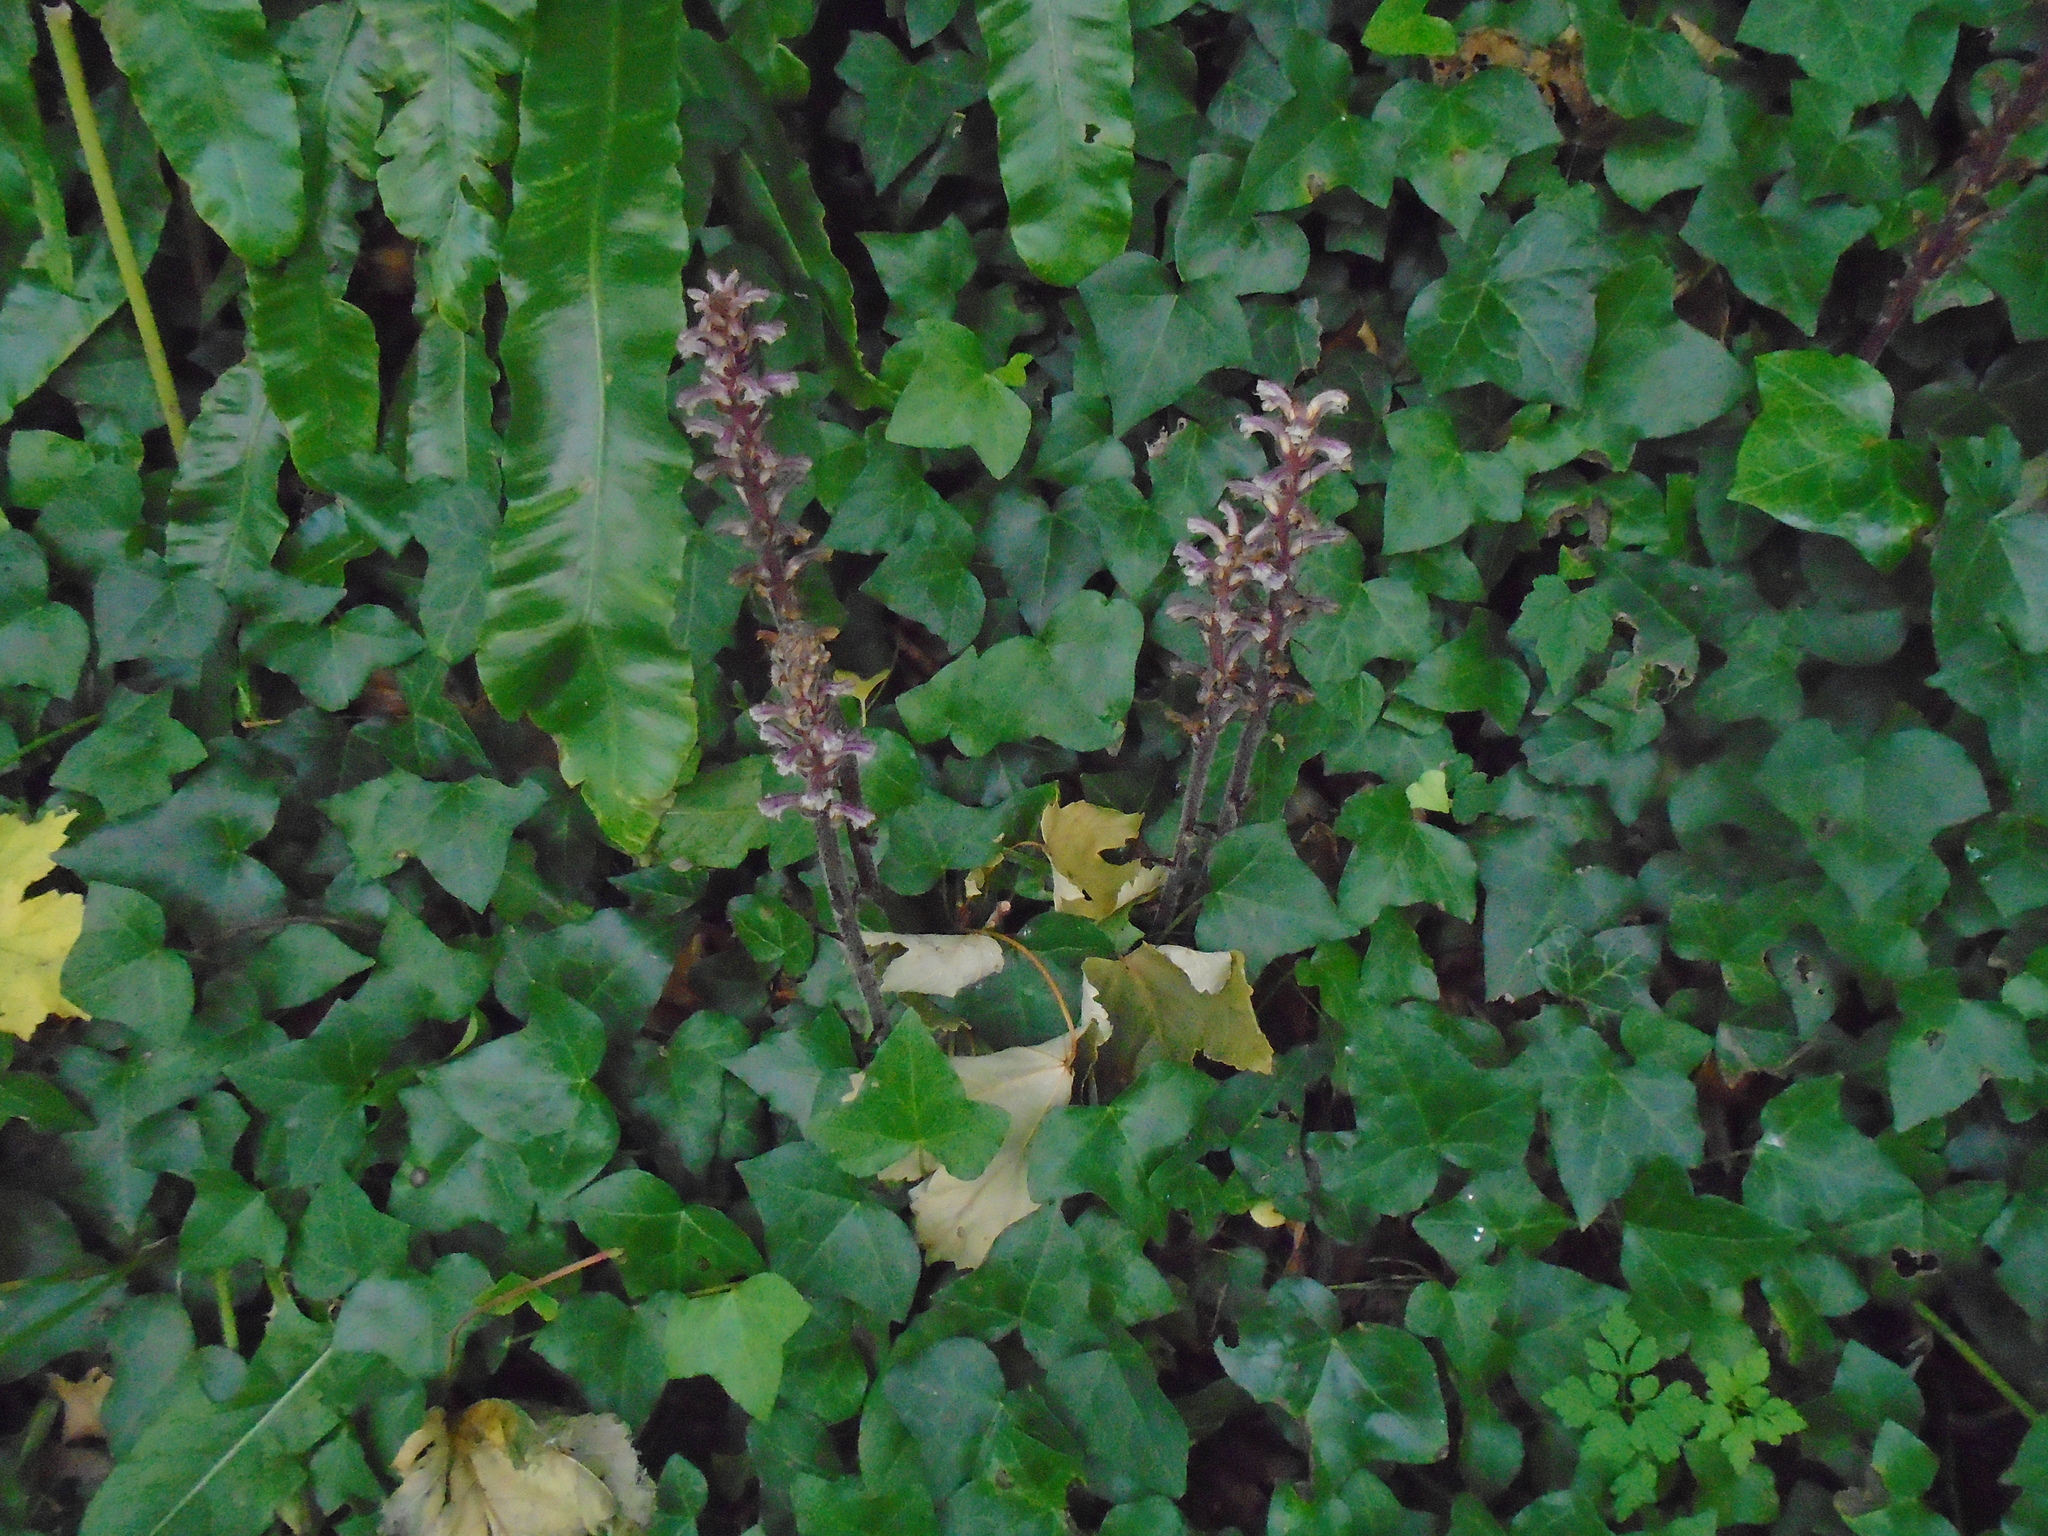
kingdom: Plantae
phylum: Tracheophyta
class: Magnoliopsida
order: Lamiales
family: Orobanchaceae
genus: Orobanche
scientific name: Orobanche hederae
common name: Ivy broomrape
